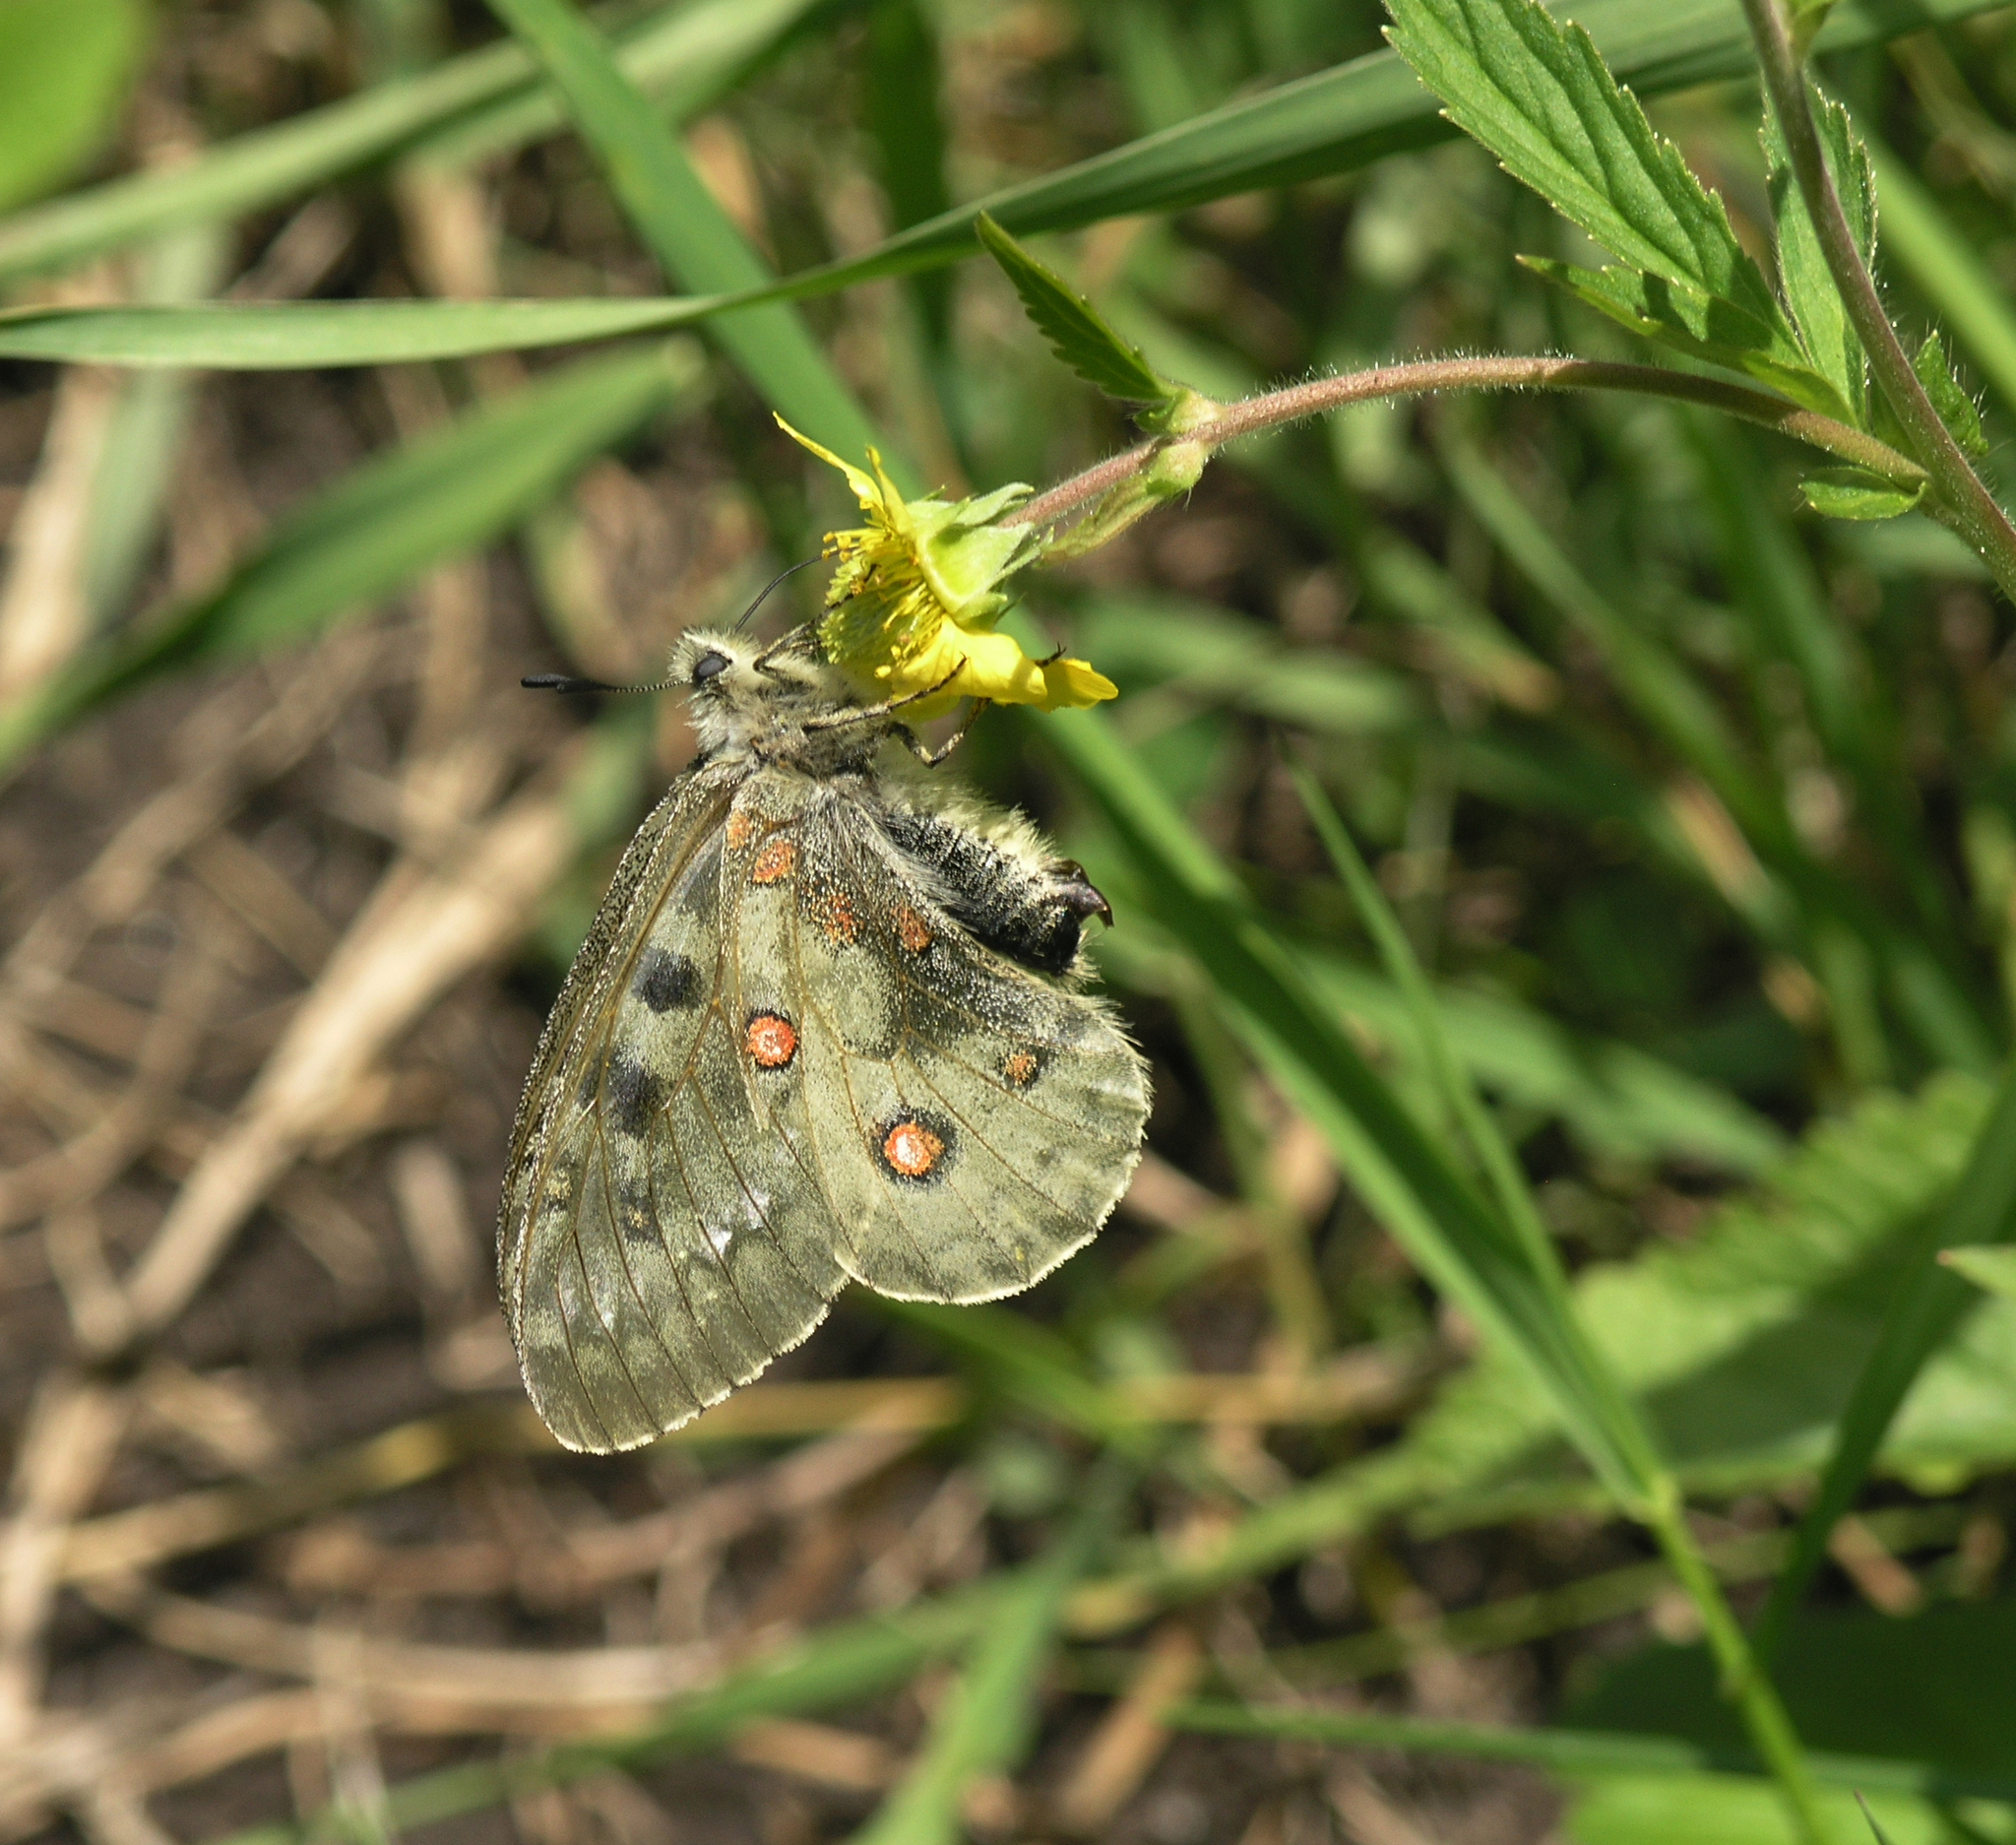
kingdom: Animalia
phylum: Arthropoda
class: Insecta
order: Lepidoptera
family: Papilionidae
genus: Parnassius
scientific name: Parnassius phoebus
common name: Small apollo
